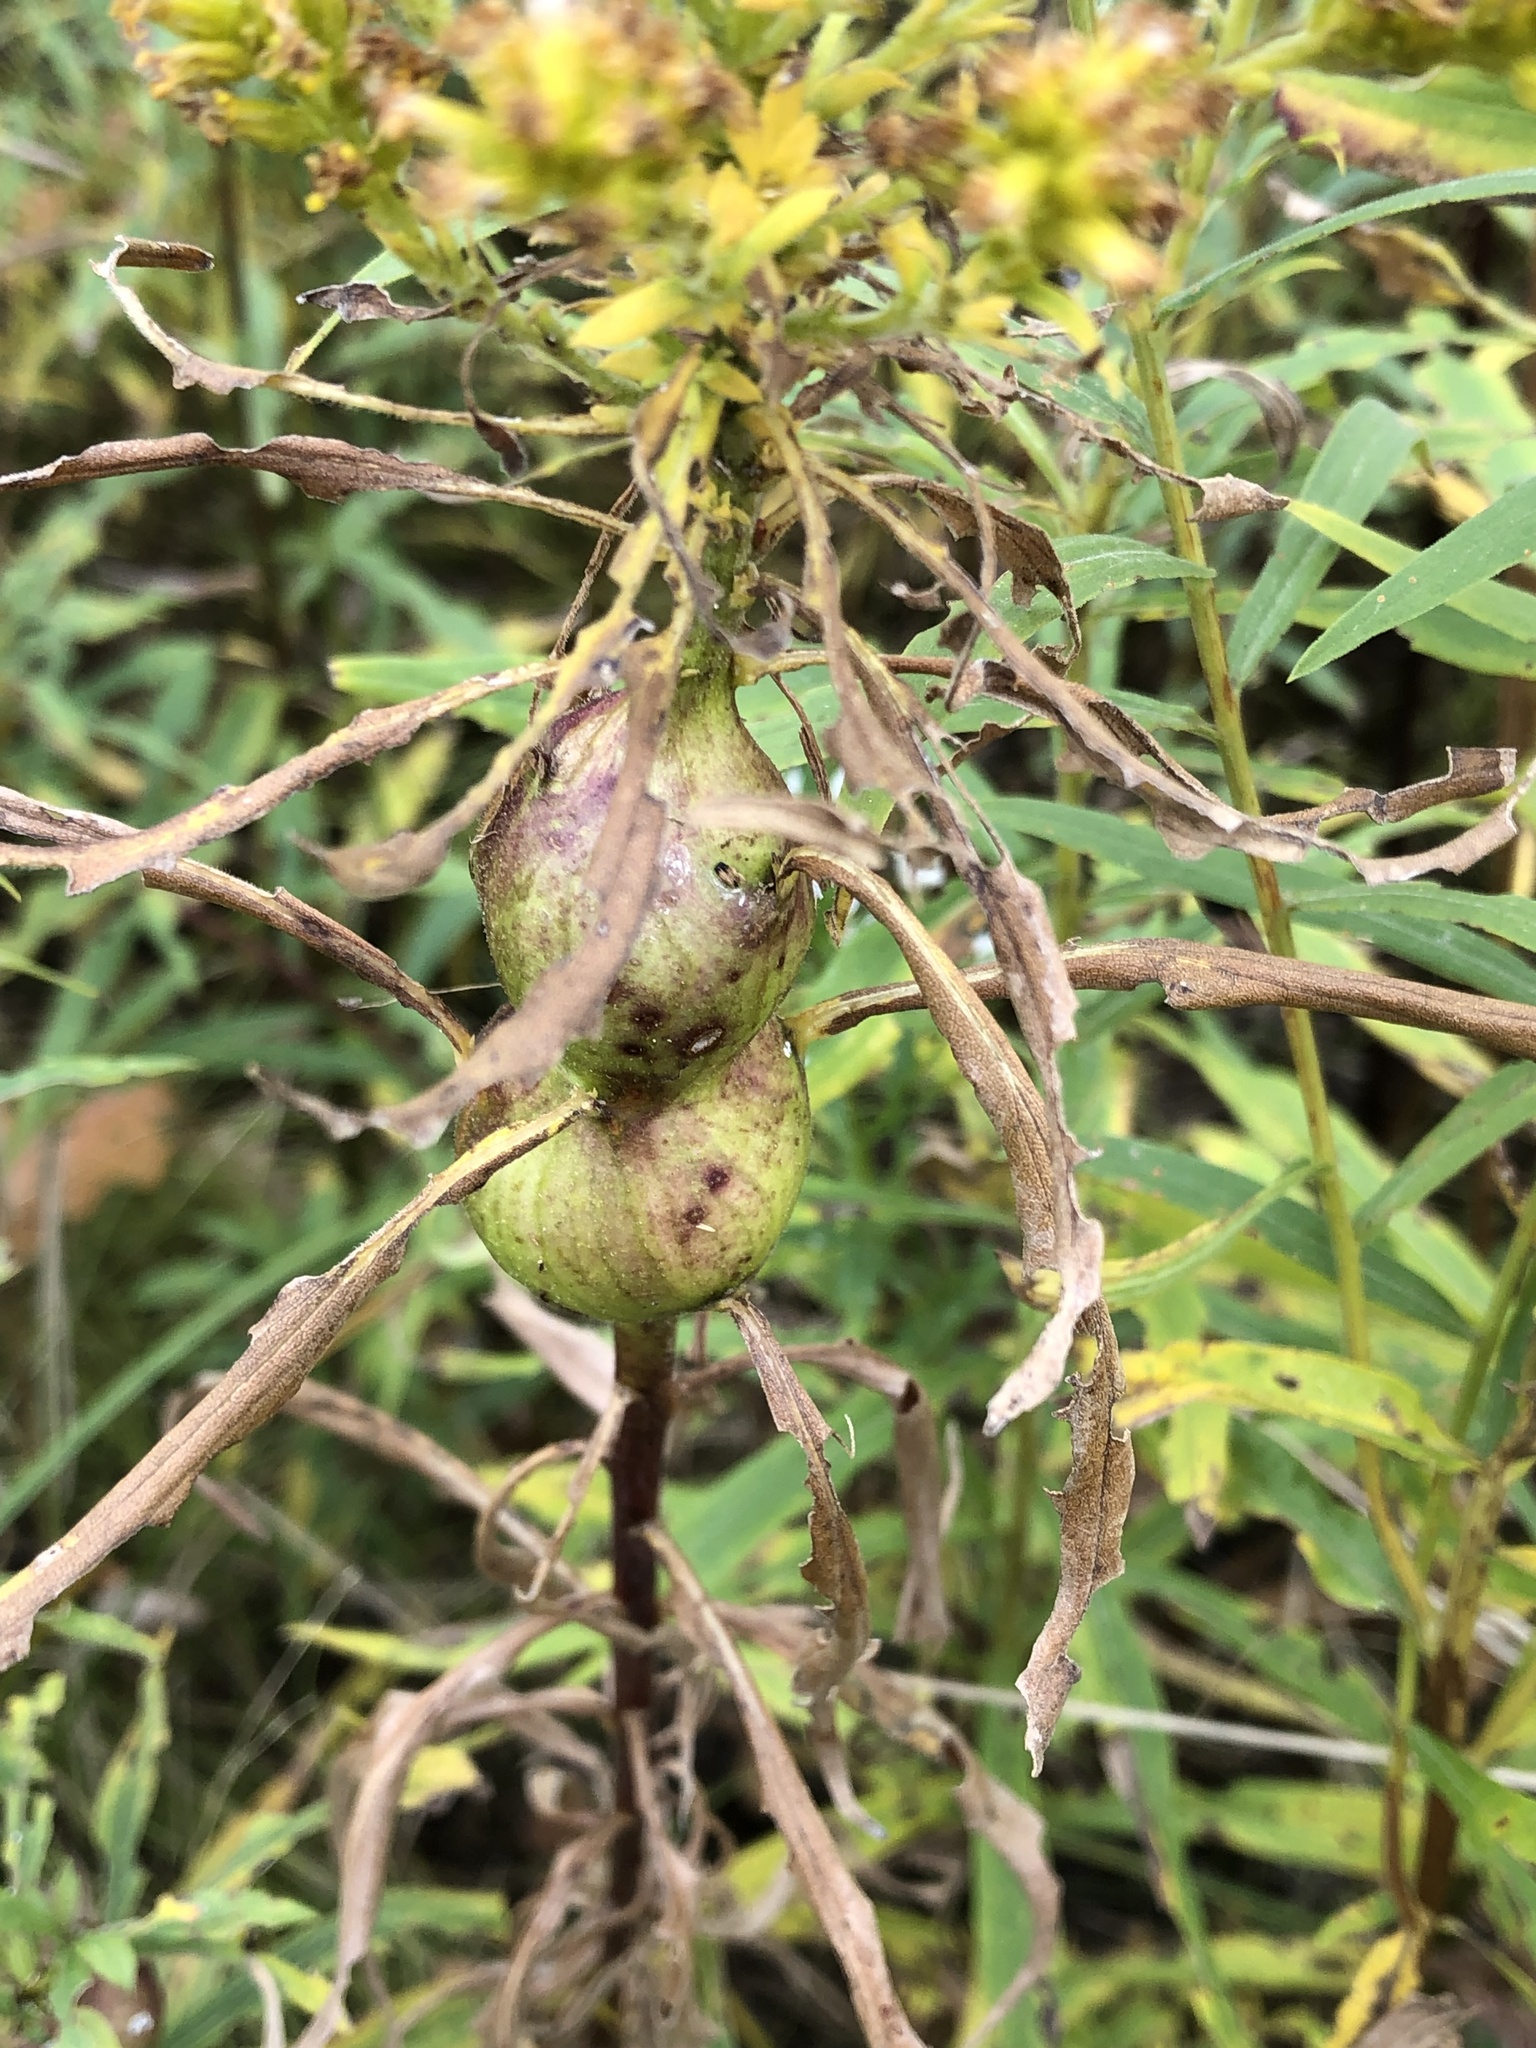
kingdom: Animalia
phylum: Arthropoda
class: Insecta
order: Diptera
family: Tephritidae
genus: Eurosta
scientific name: Eurosta solidaginis
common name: Goldenrod gall fly
